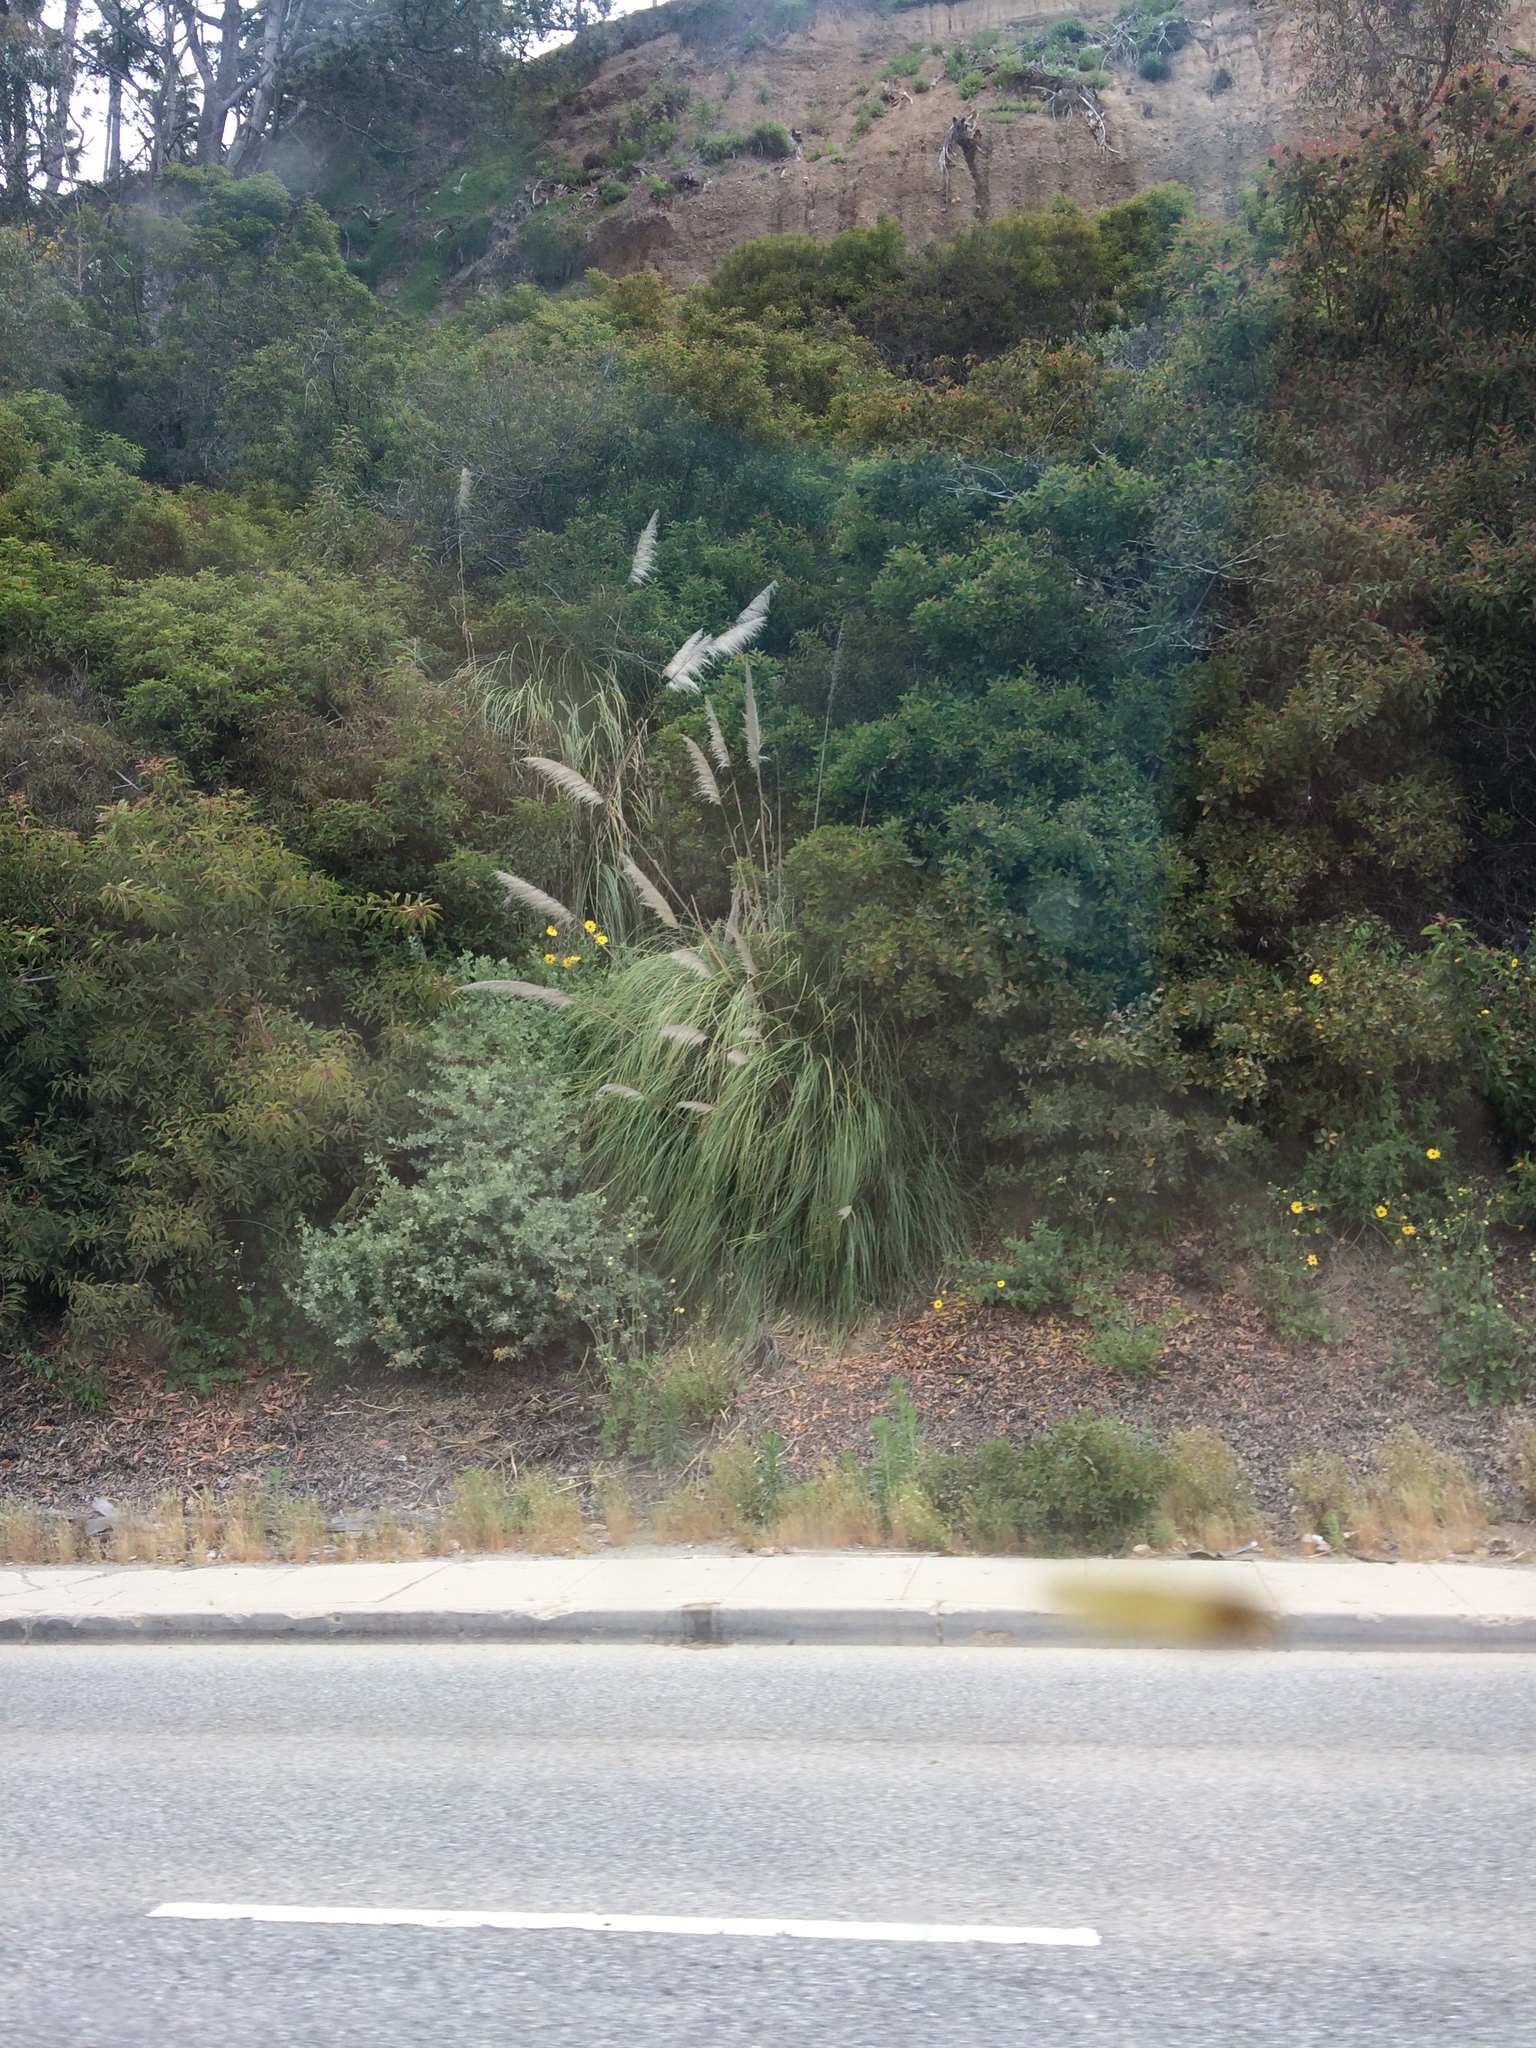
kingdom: Plantae
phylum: Tracheophyta
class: Magnoliopsida
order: Sapindales
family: Anacardiaceae
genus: Malosma
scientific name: Malosma laurina
